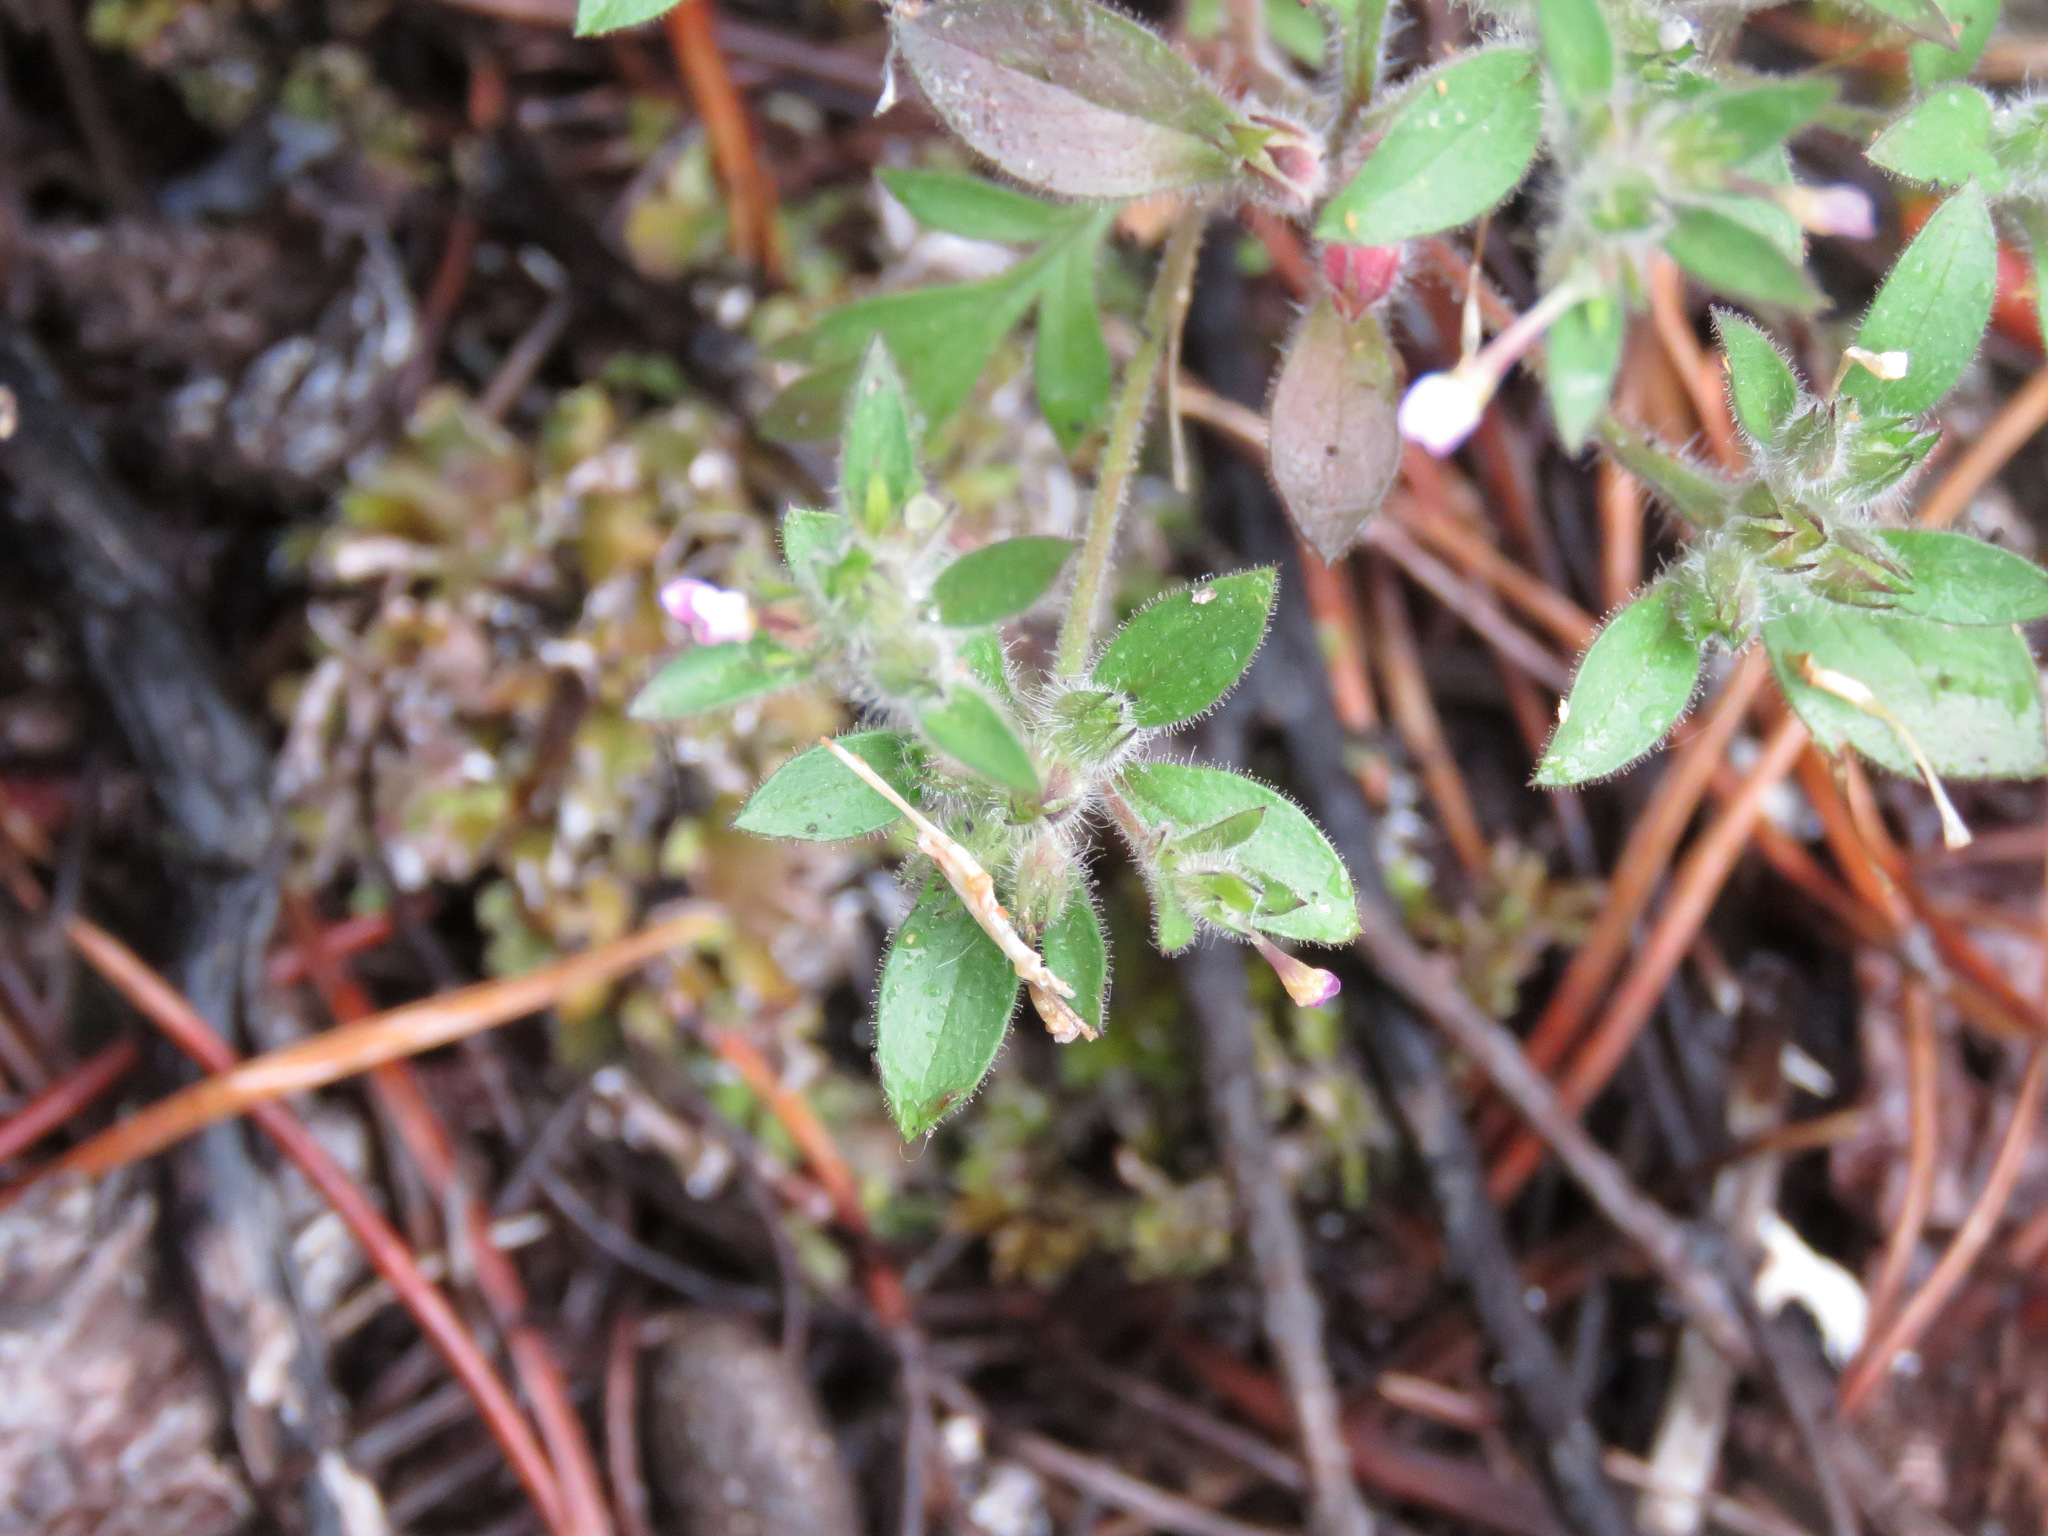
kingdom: Plantae
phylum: Tracheophyta
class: Magnoliopsida
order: Ericales
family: Polemoniaceae
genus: Collomia
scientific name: Collomia heterophylla
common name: Variable-leaved collomia
